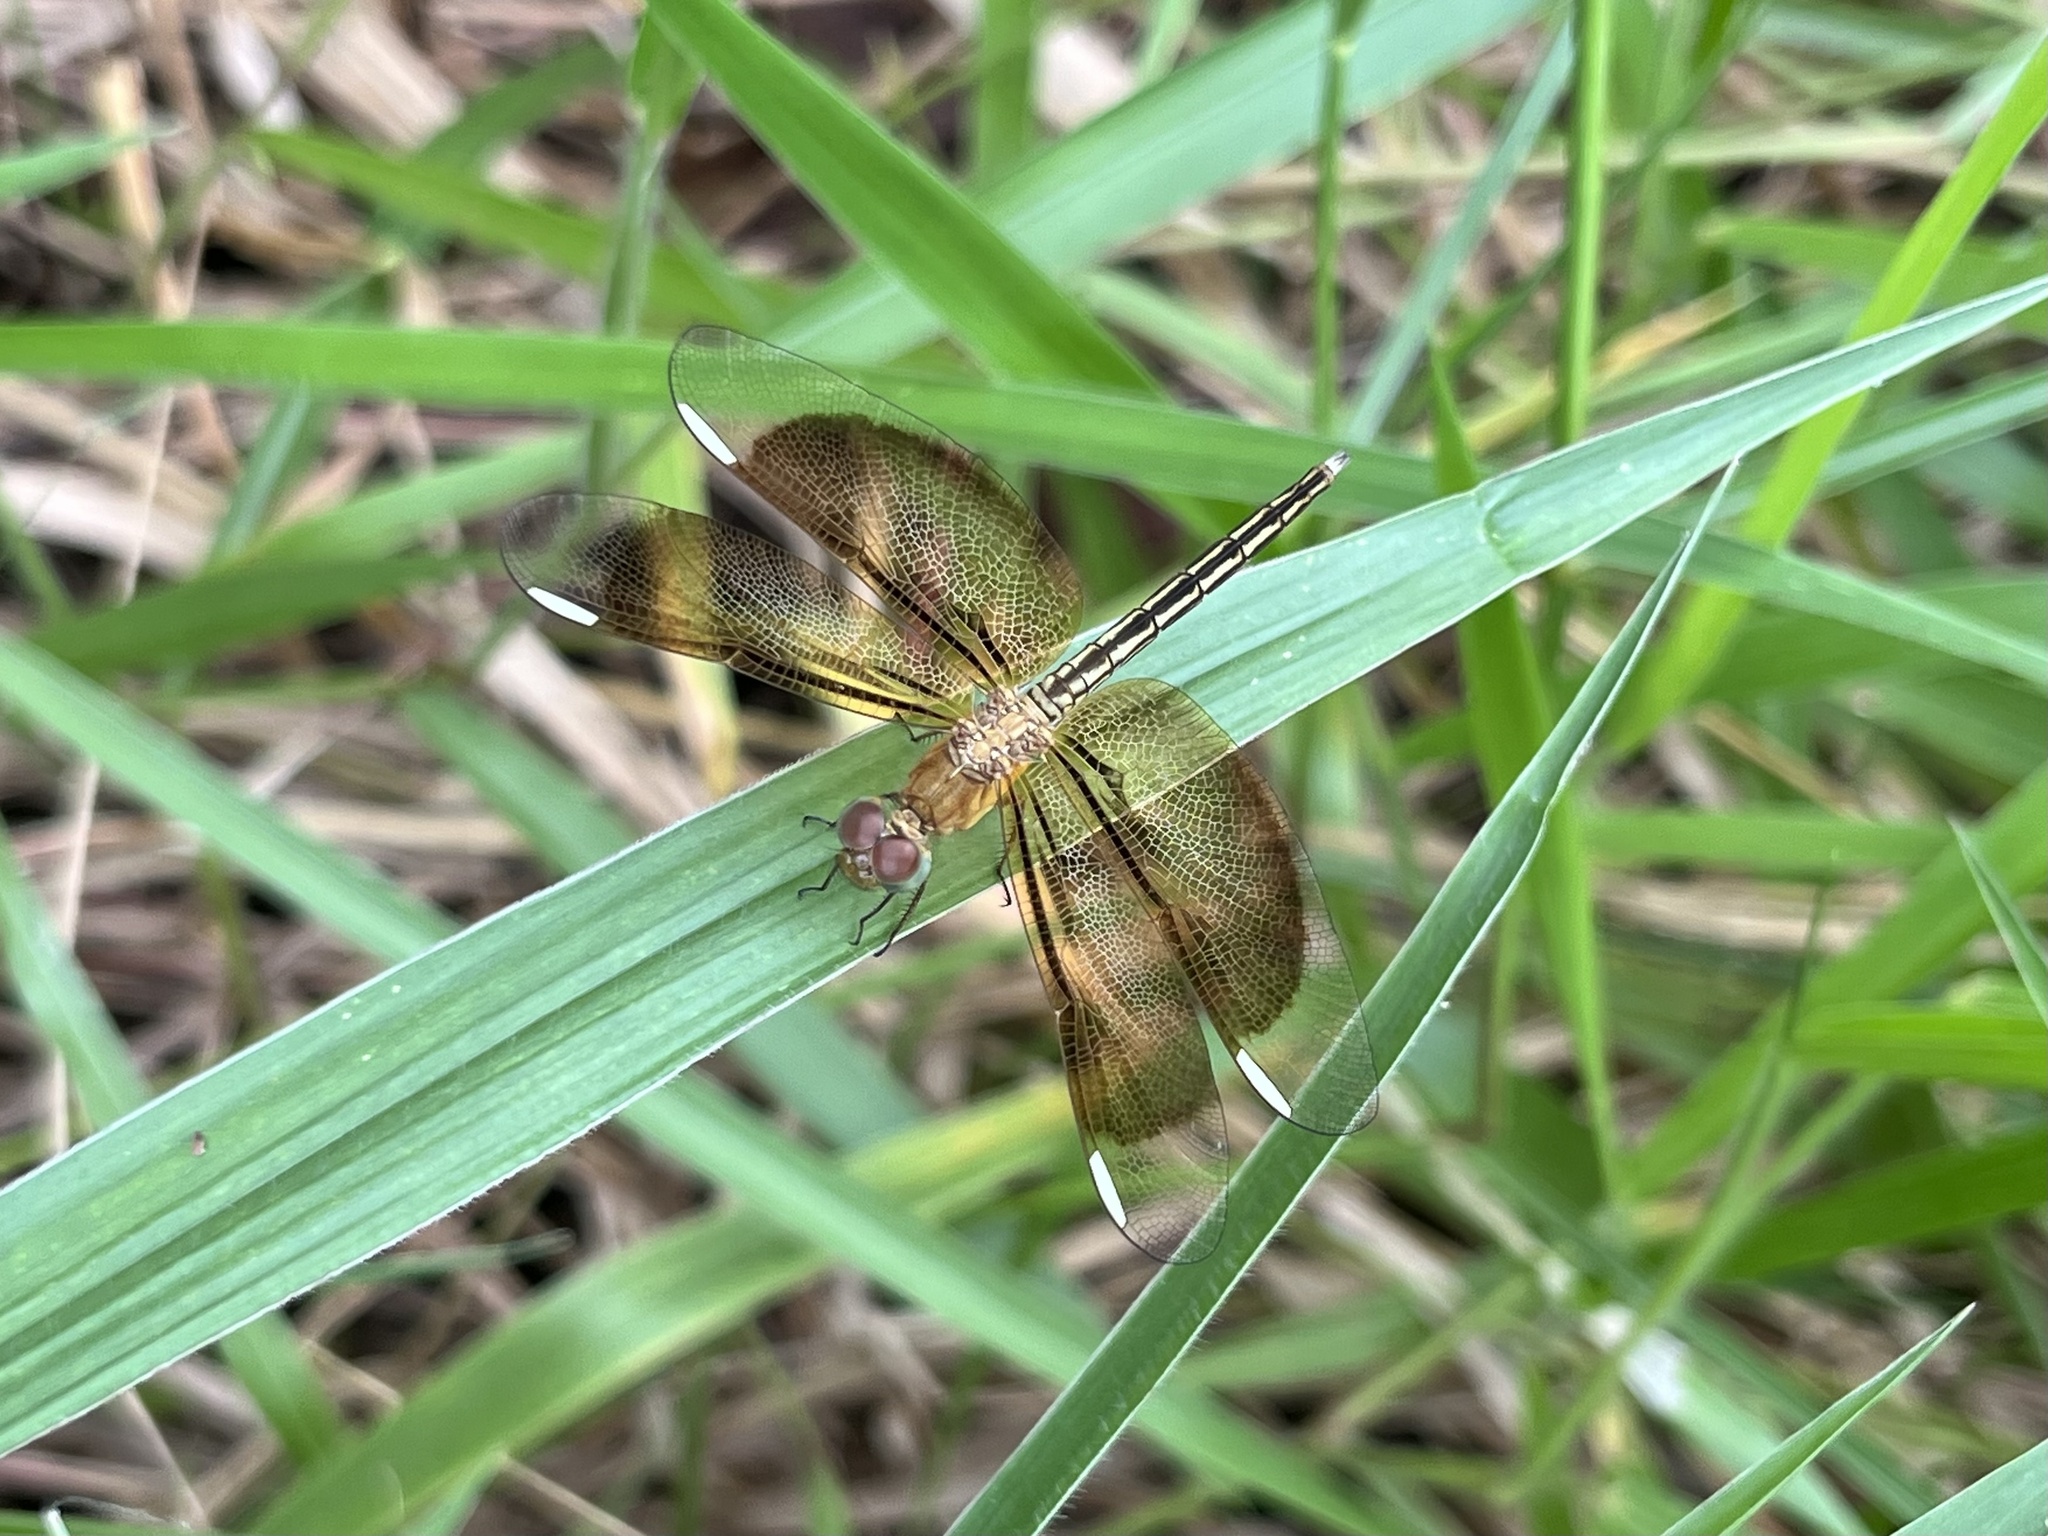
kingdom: Animalia
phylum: Arthropoda
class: Insecta
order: Odonata
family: Libellulidae
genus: Neurothemis
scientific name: Neurothemis stigmatizans
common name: Painted grasshawk
